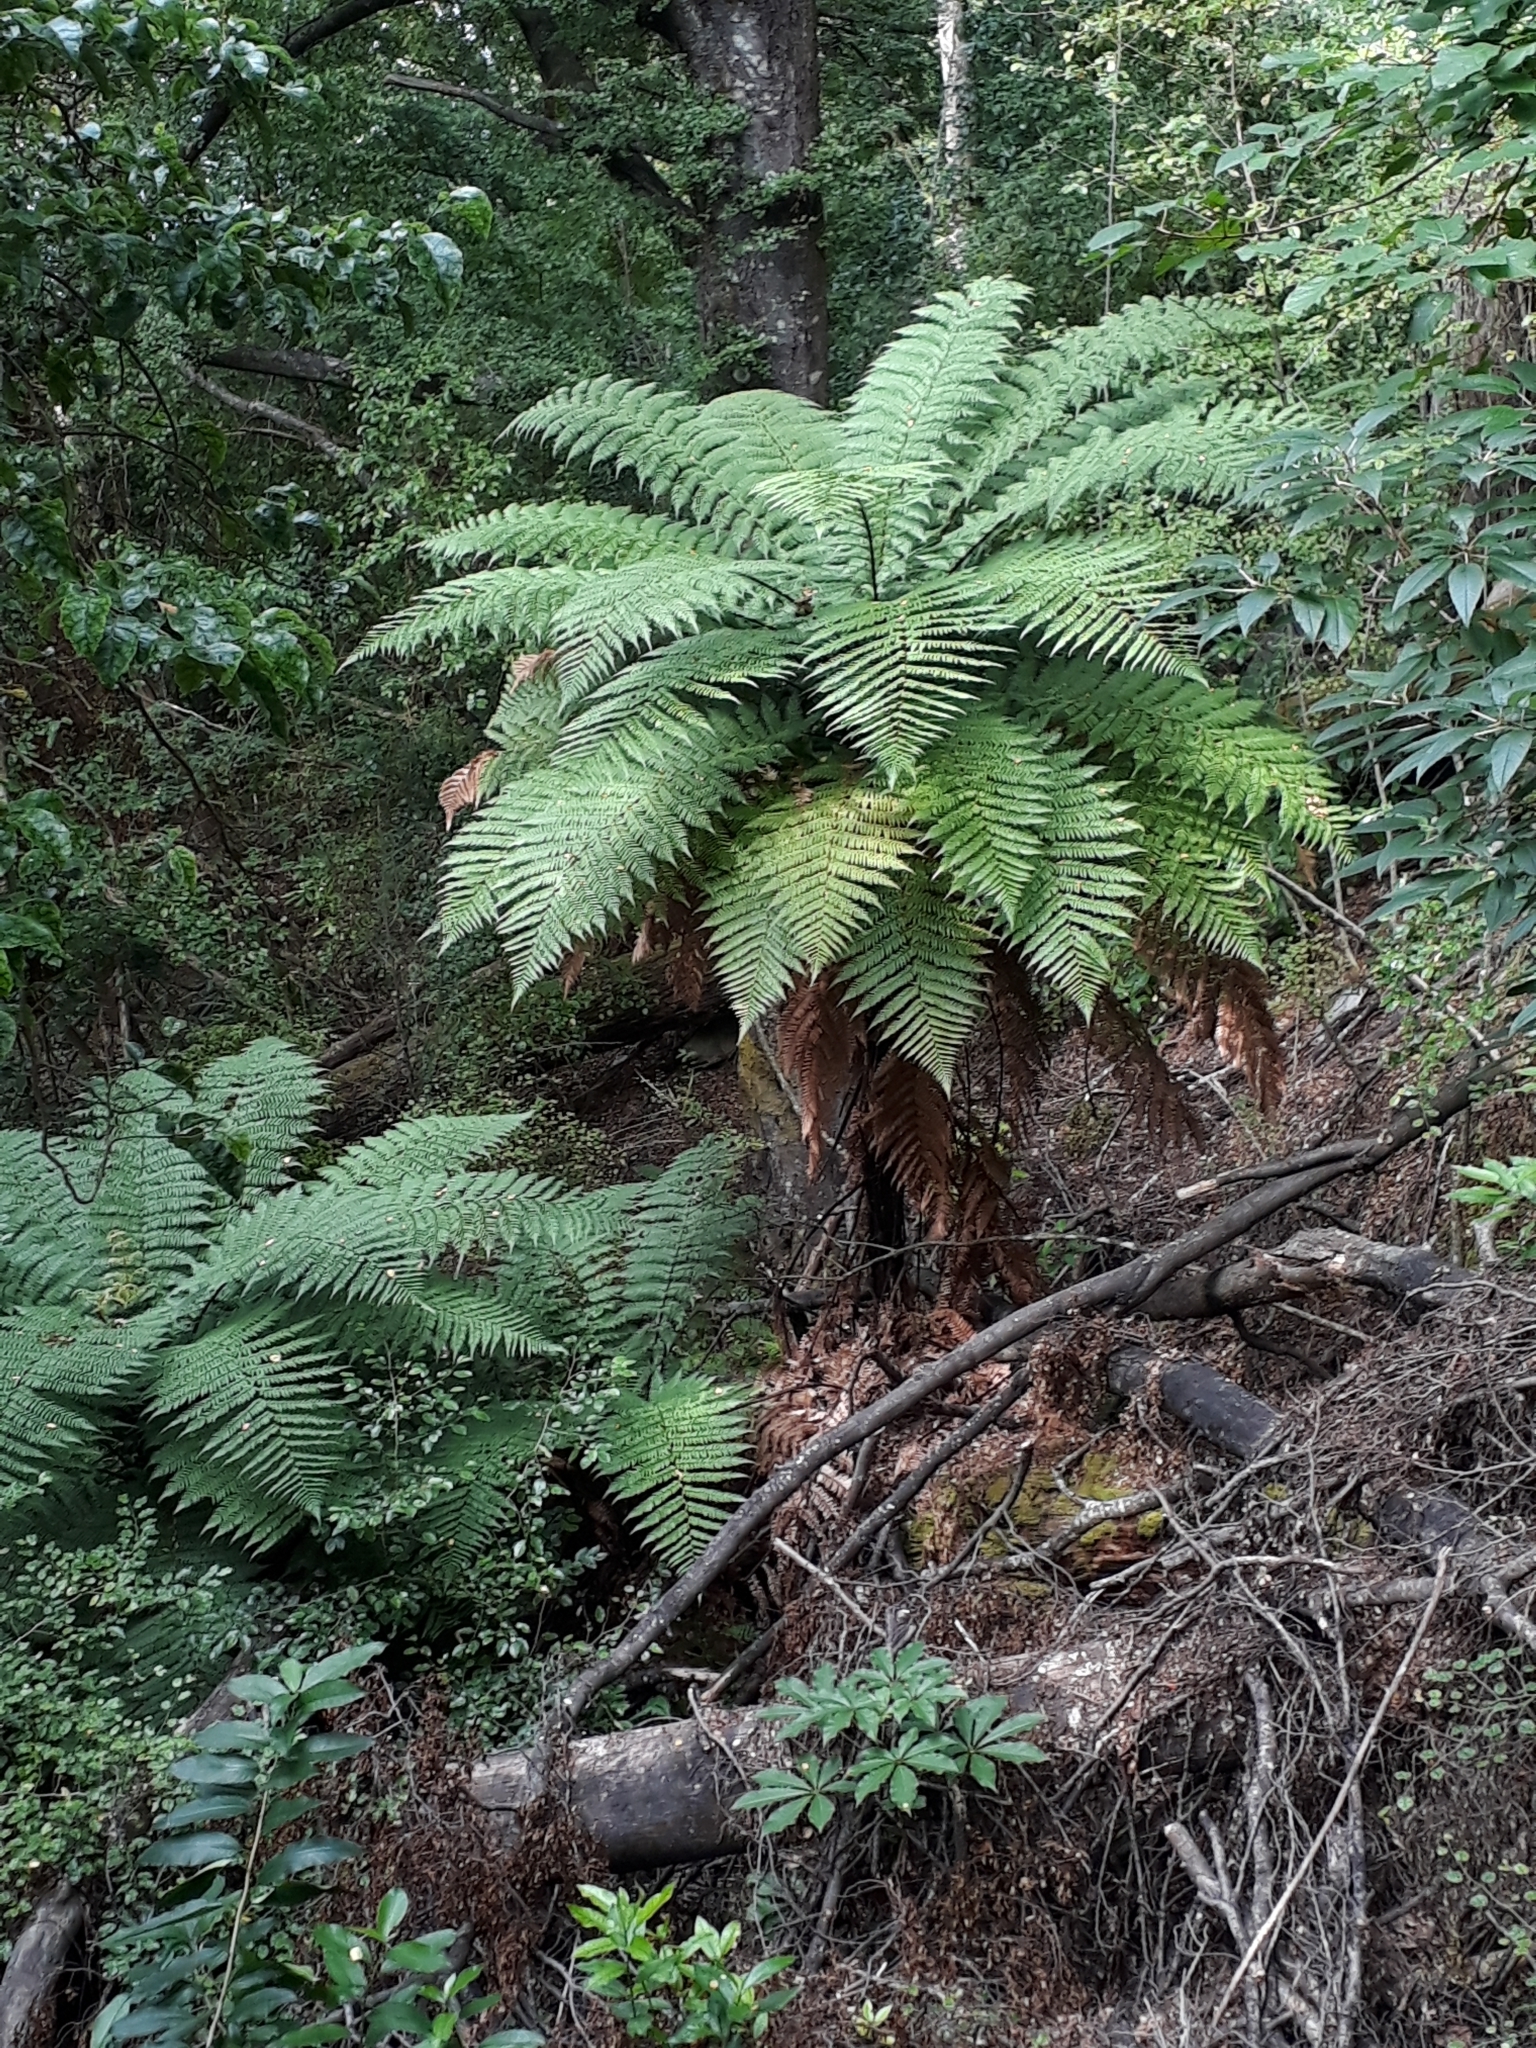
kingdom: Plantae
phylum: Tracheophyta
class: Polypodiopsida
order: Cyatheales
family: Dicksoniaceae
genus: Dicksonia
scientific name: Dicksonia squarrosa
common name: Hard treefern
